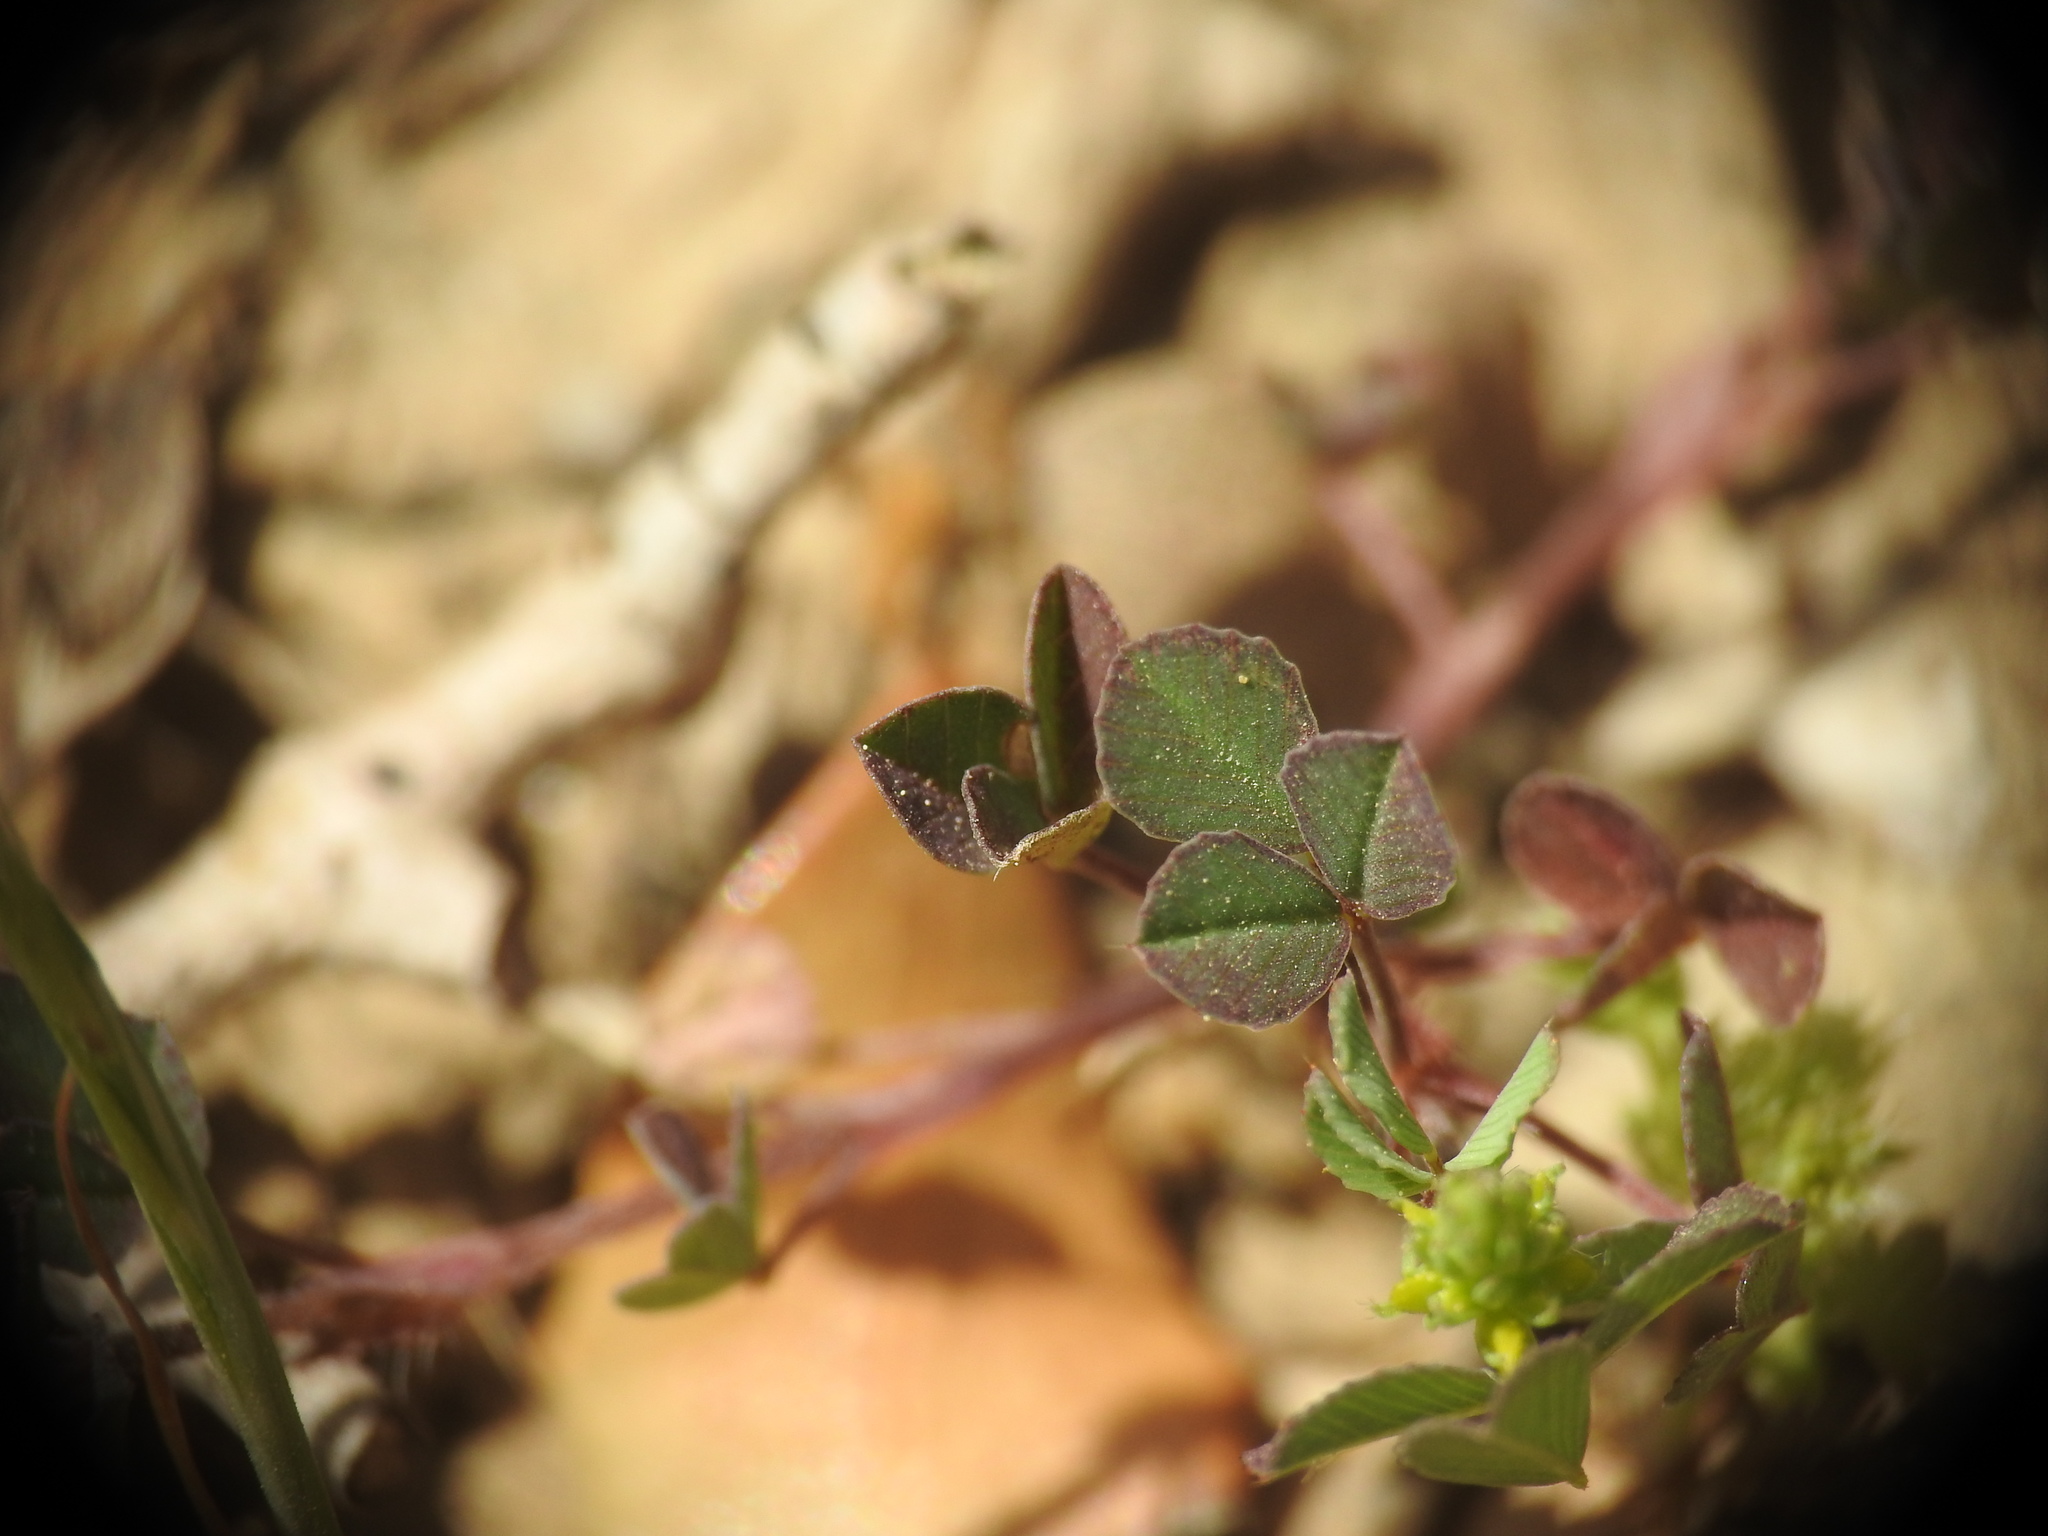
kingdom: Plantae
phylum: Tracheophyta
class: Magnoliopsida
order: Fabales
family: Fabaceae
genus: Trifolium
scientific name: Trifolium campestre
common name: Field clover
